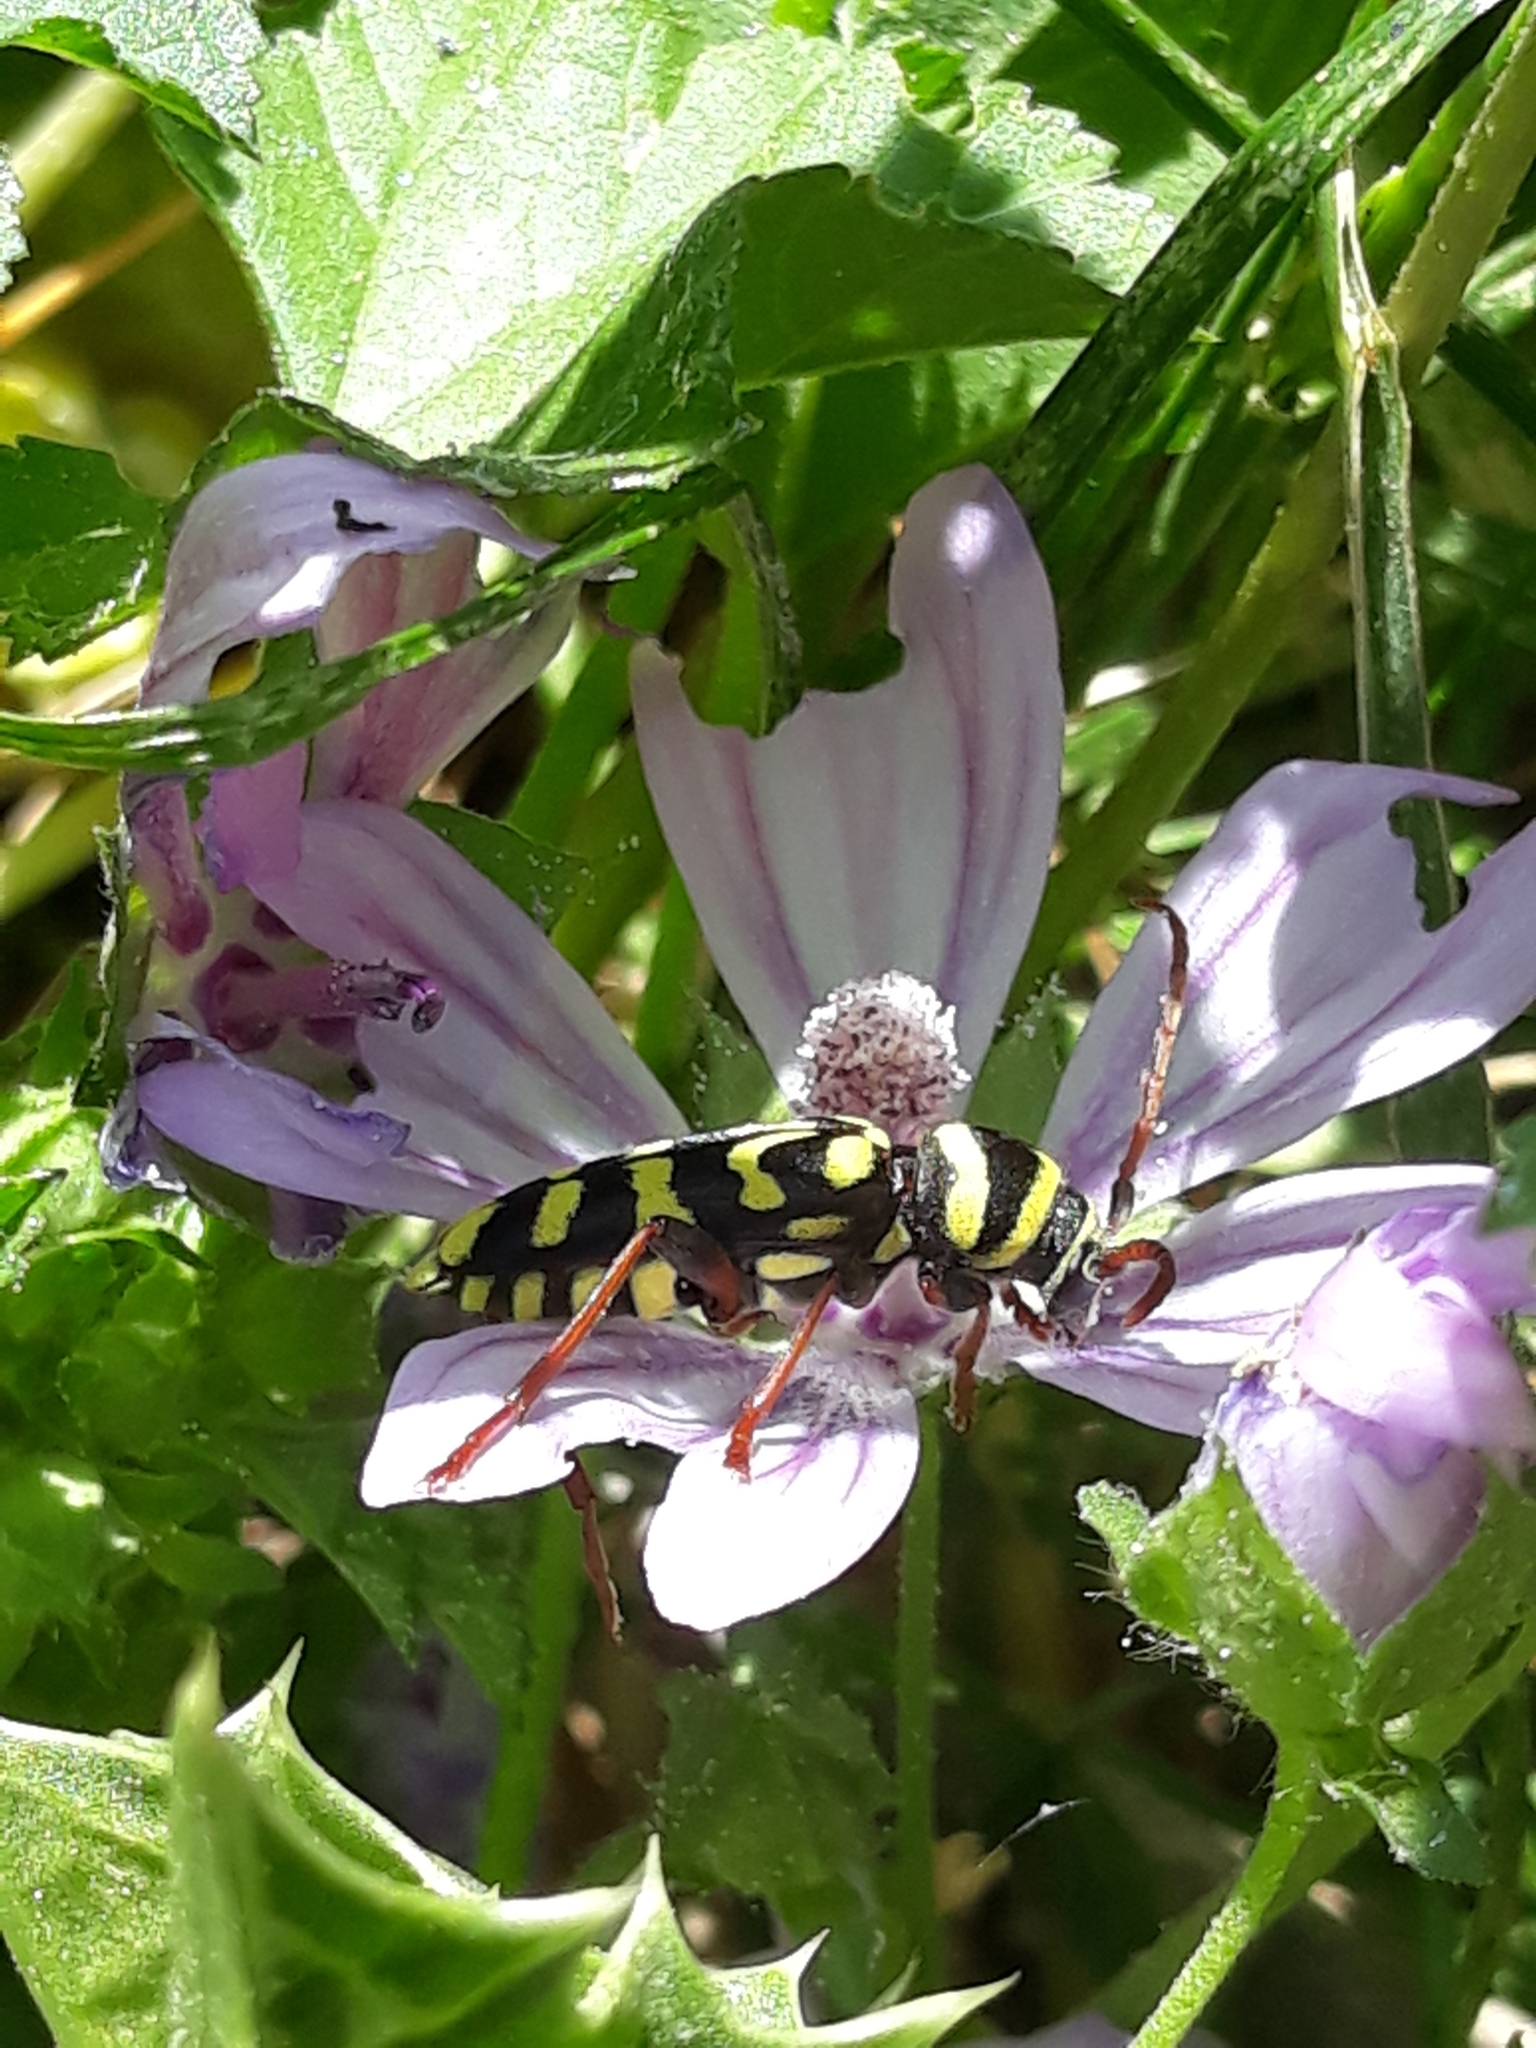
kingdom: Animalia
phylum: Arthropoda
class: Insecta
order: Coleoptera
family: Cerambycidae
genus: Neoplagionotus
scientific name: Neoplagionotus scalaris
